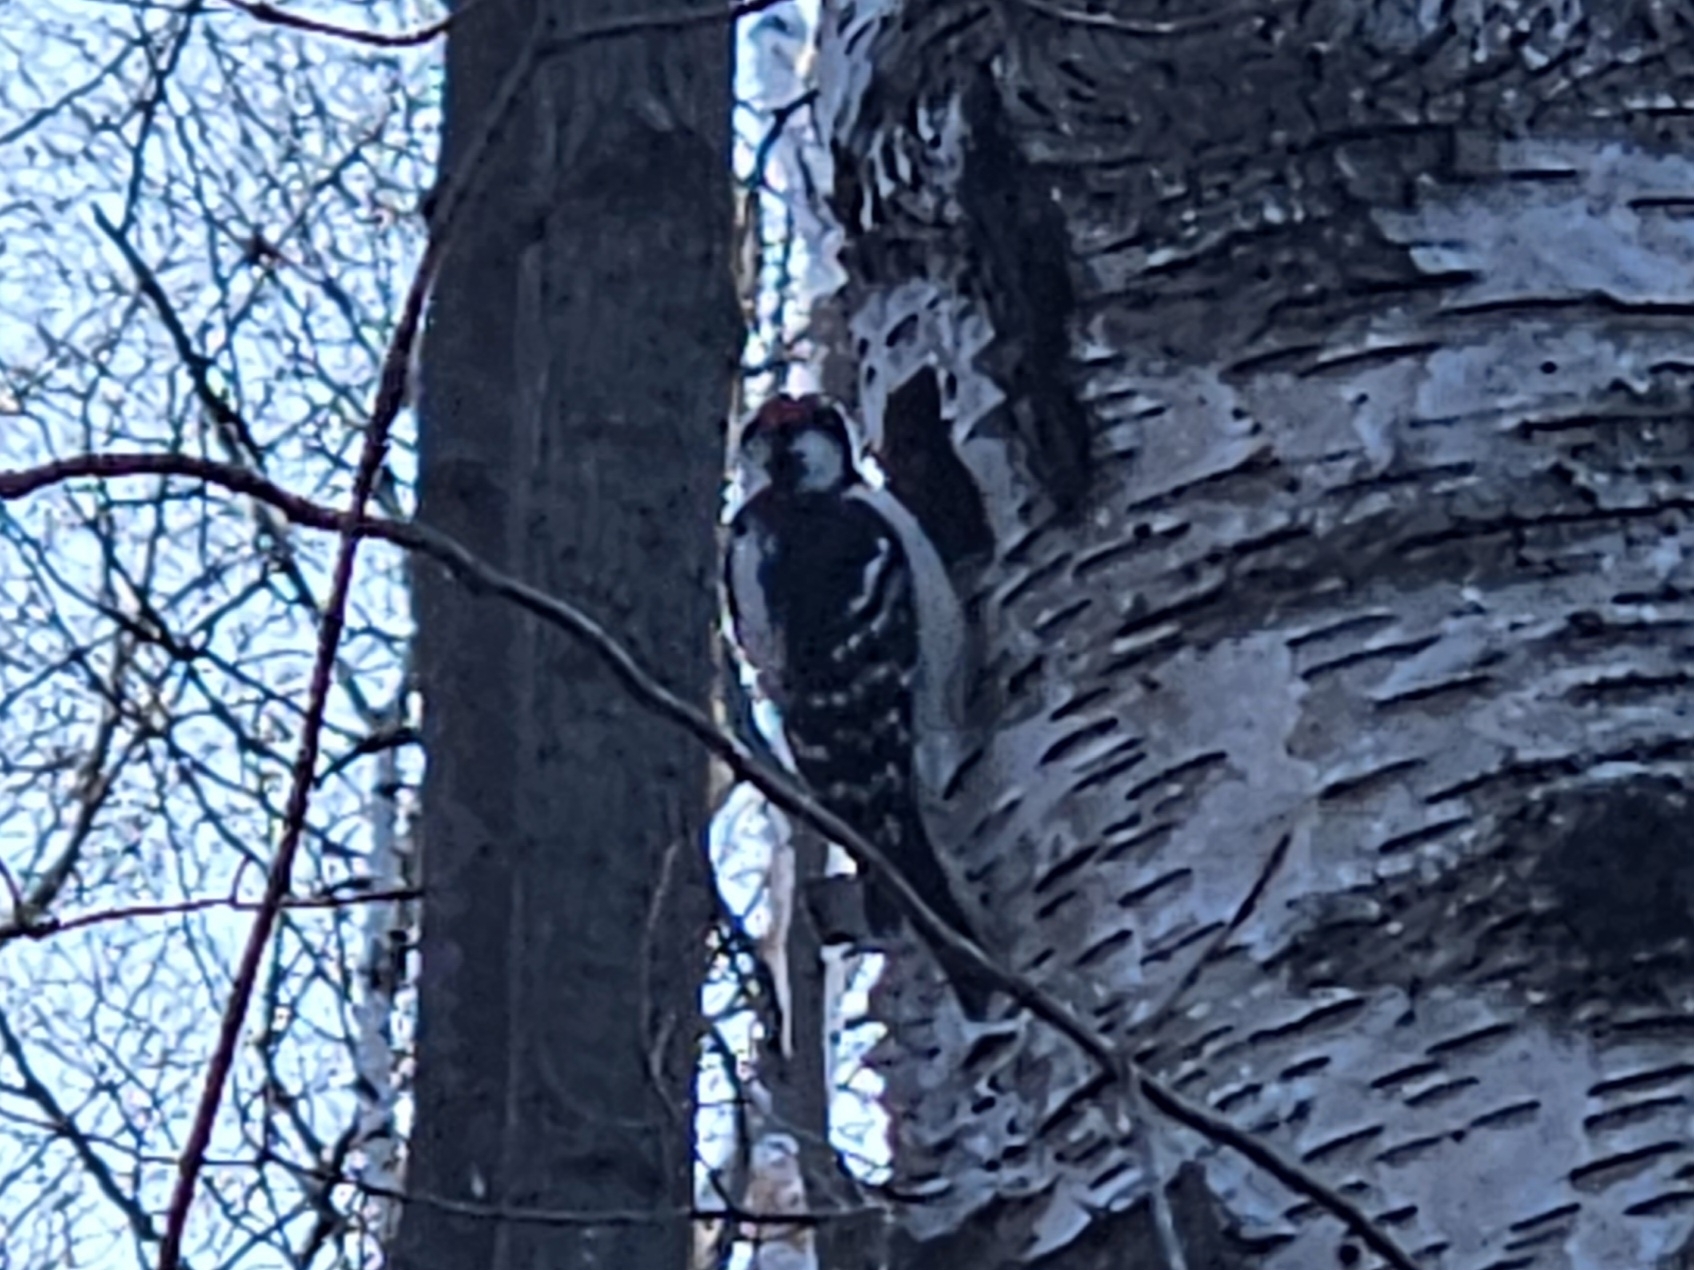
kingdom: Animalia
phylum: Chordata
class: Aves
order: Piciformes
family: Picidae
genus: Dryobates
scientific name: Dryobates pubescens
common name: Downy woodpecker
